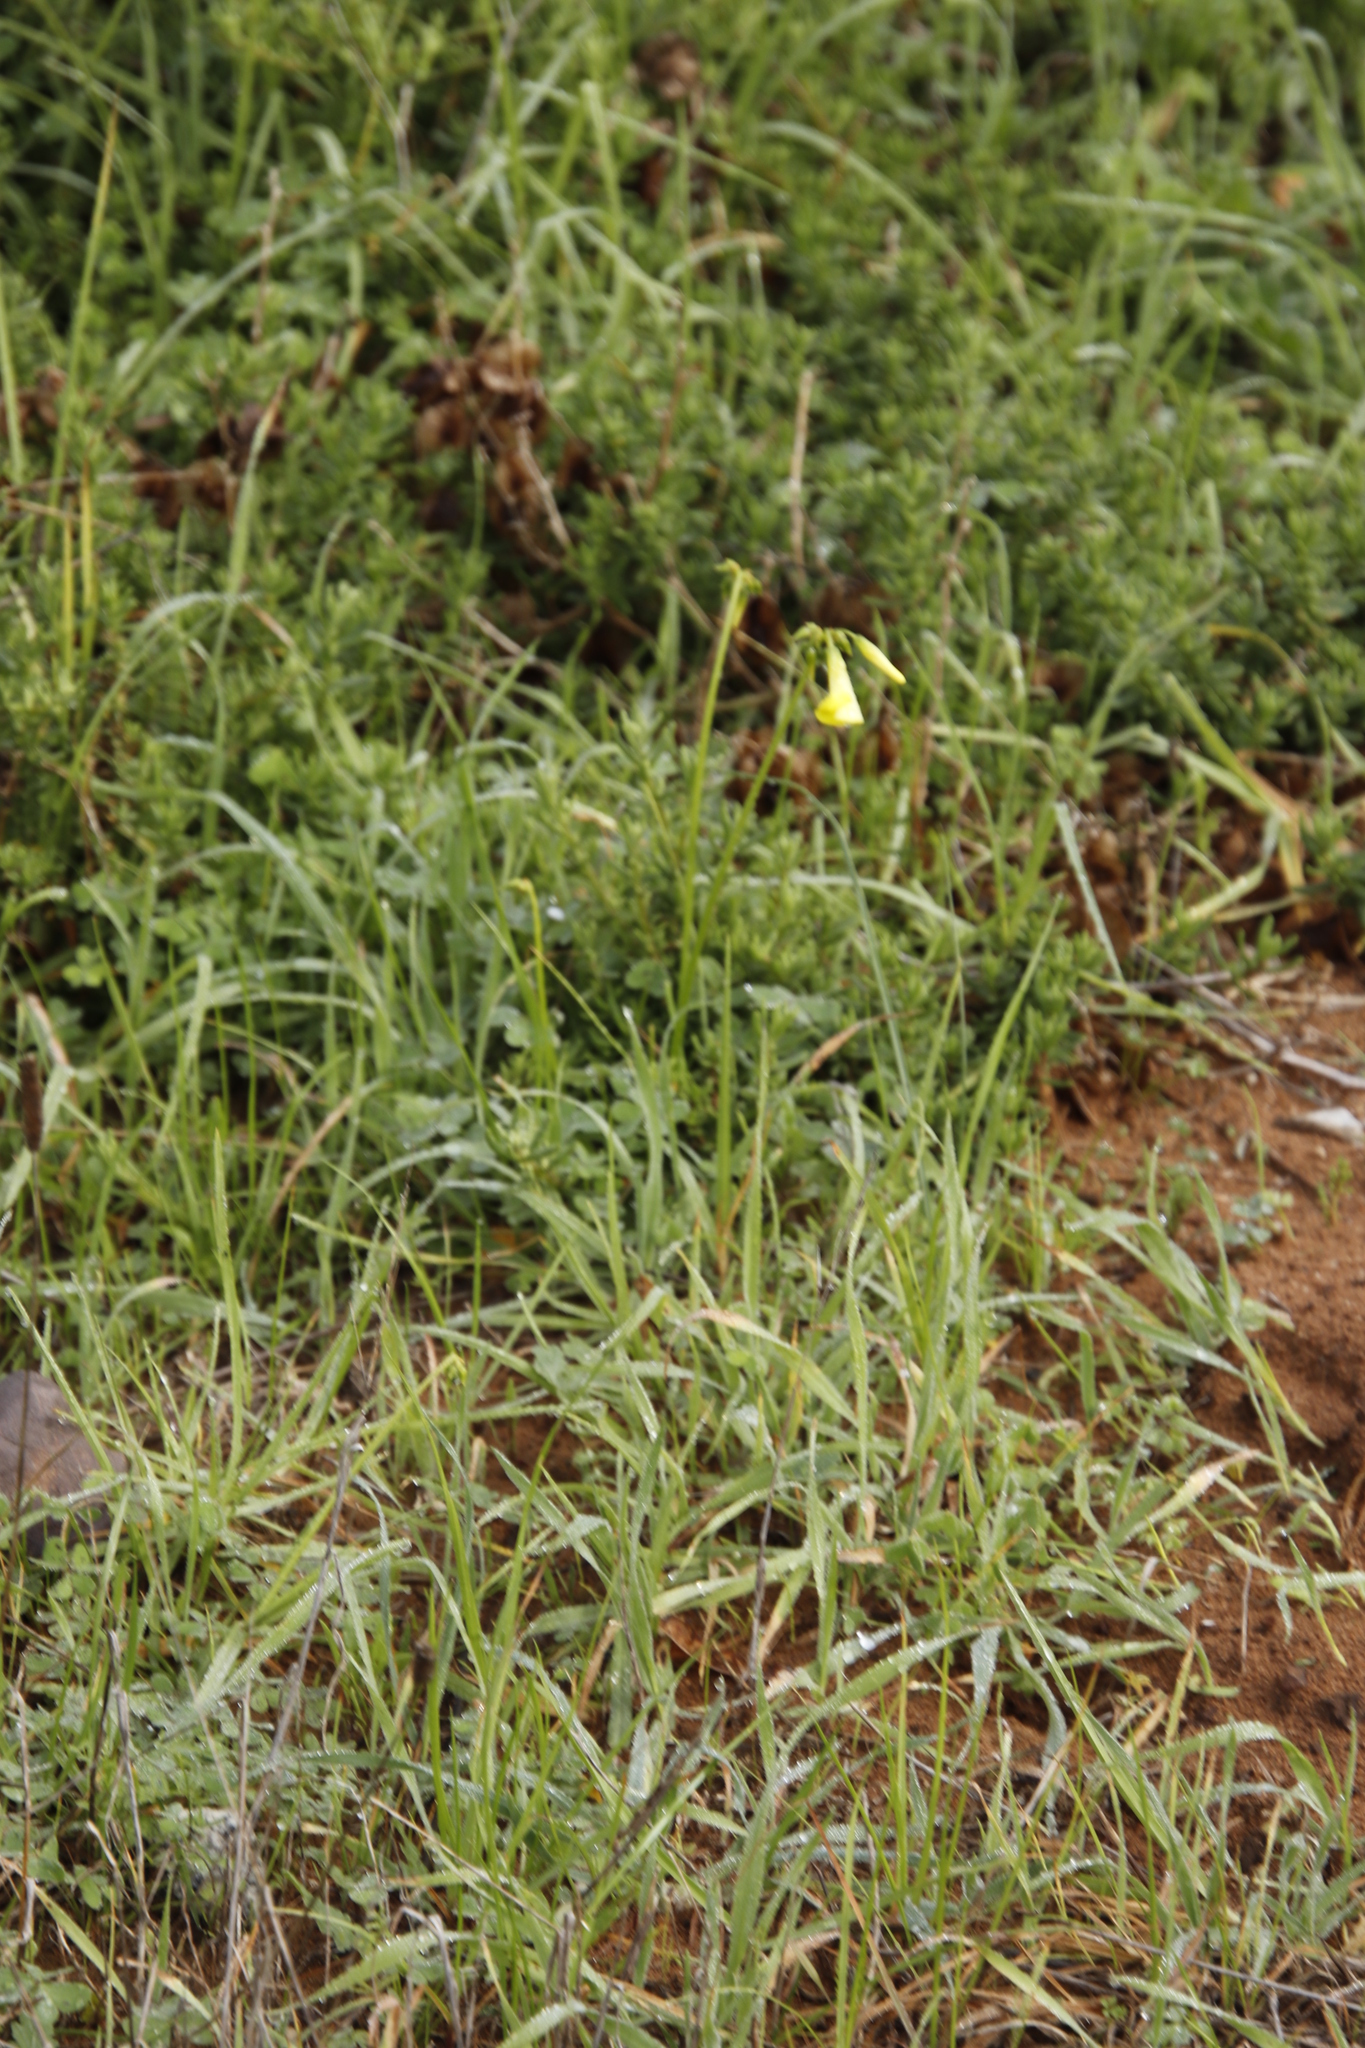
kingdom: Plantae
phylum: Tracheophyta
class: Magnoliopsida
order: Oxalidales
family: Oxalidaceae
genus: Oxalis
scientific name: Oxalis pes-caprae
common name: Bermuda-buttercup
